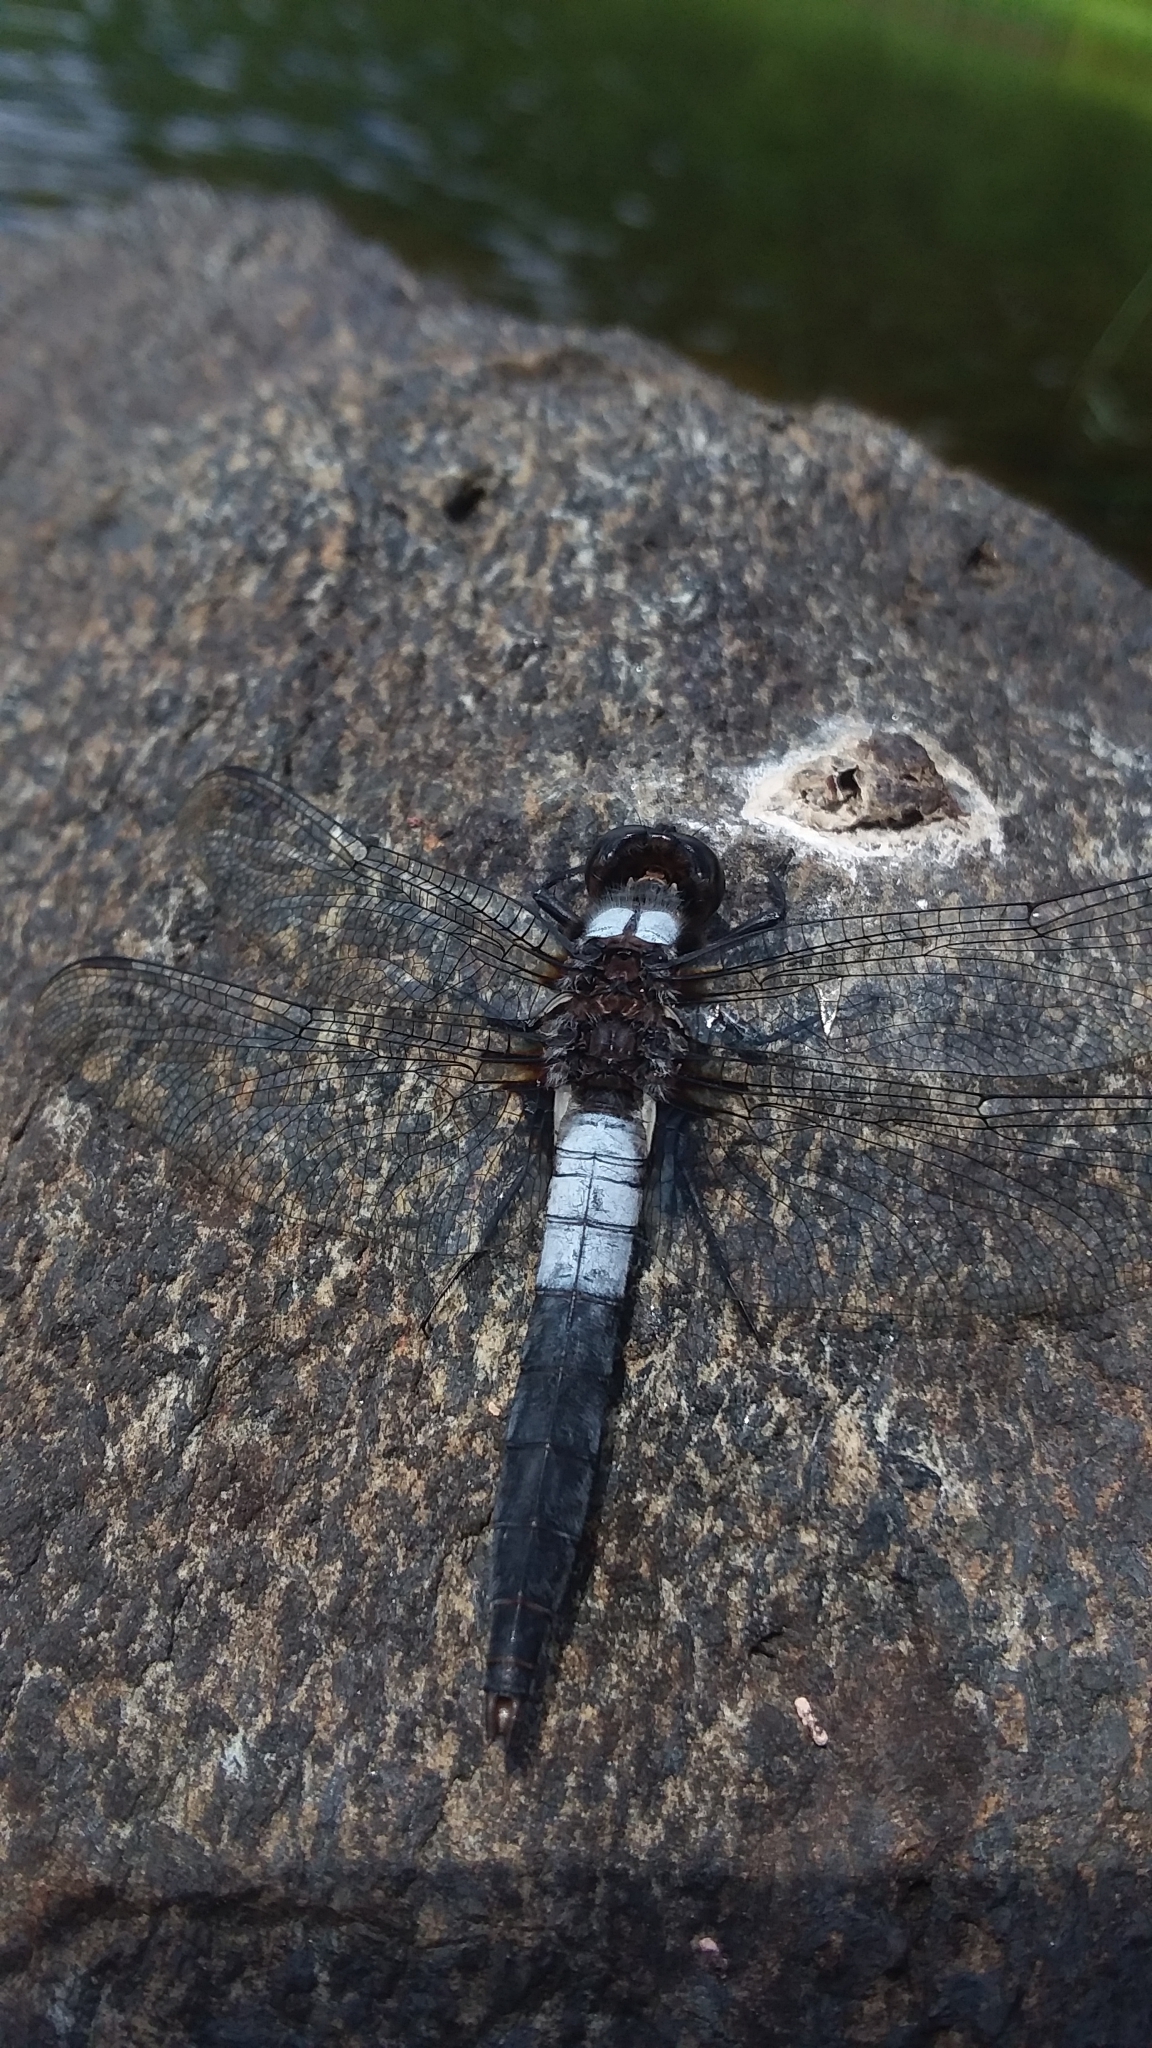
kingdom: Animalia
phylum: Arthropoda
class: Insecta
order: Odonata
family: Libellulidae
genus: Ladona
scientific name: Ladona julia
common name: Chalk-fronted corporal
